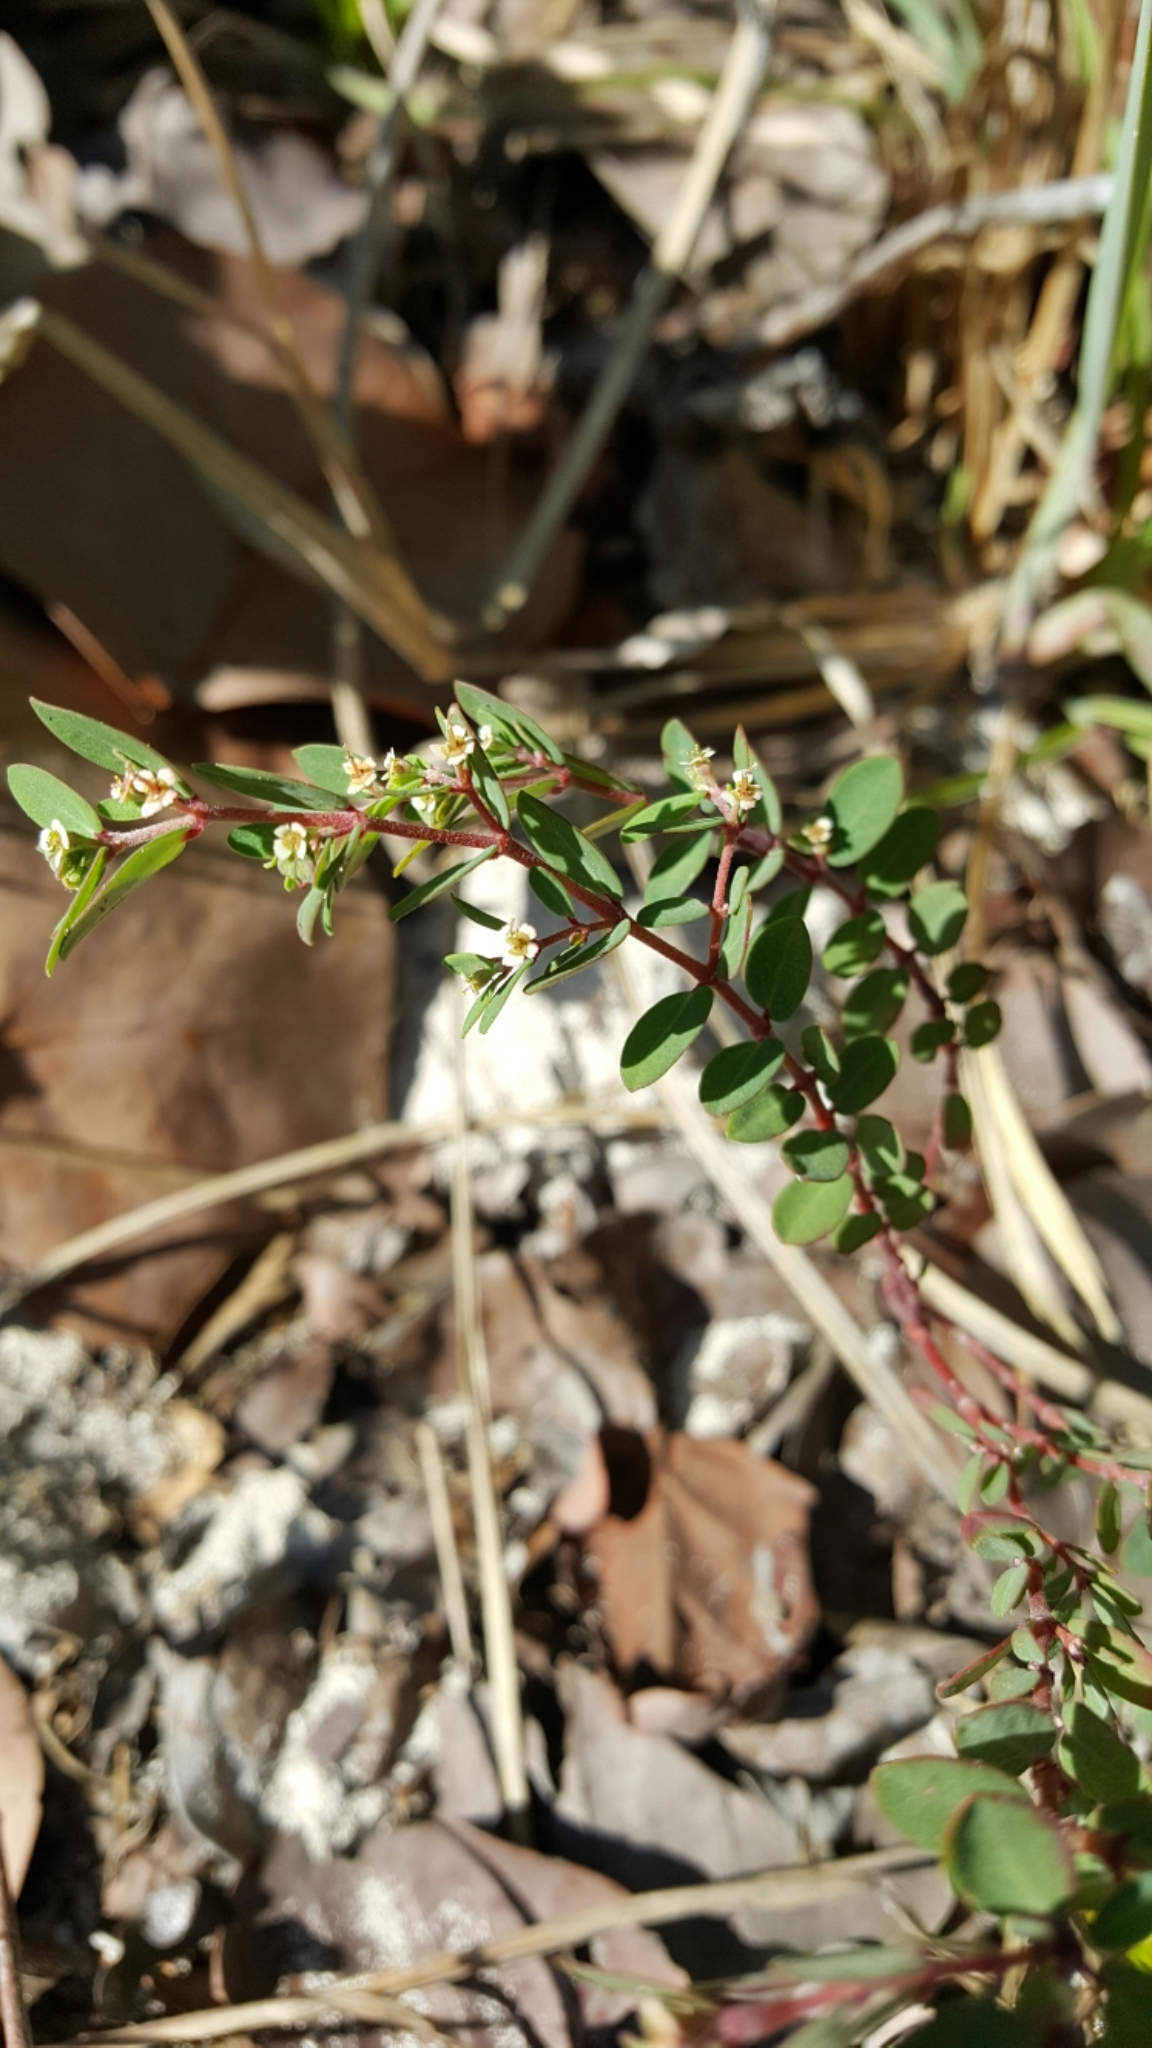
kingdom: Plantae
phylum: Tracheophyta
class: Magnoliopsida
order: Malpighiales
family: Euphorbiaceae
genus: Euphorbia
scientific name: Euphorbia garberi
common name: Garber's spurge
